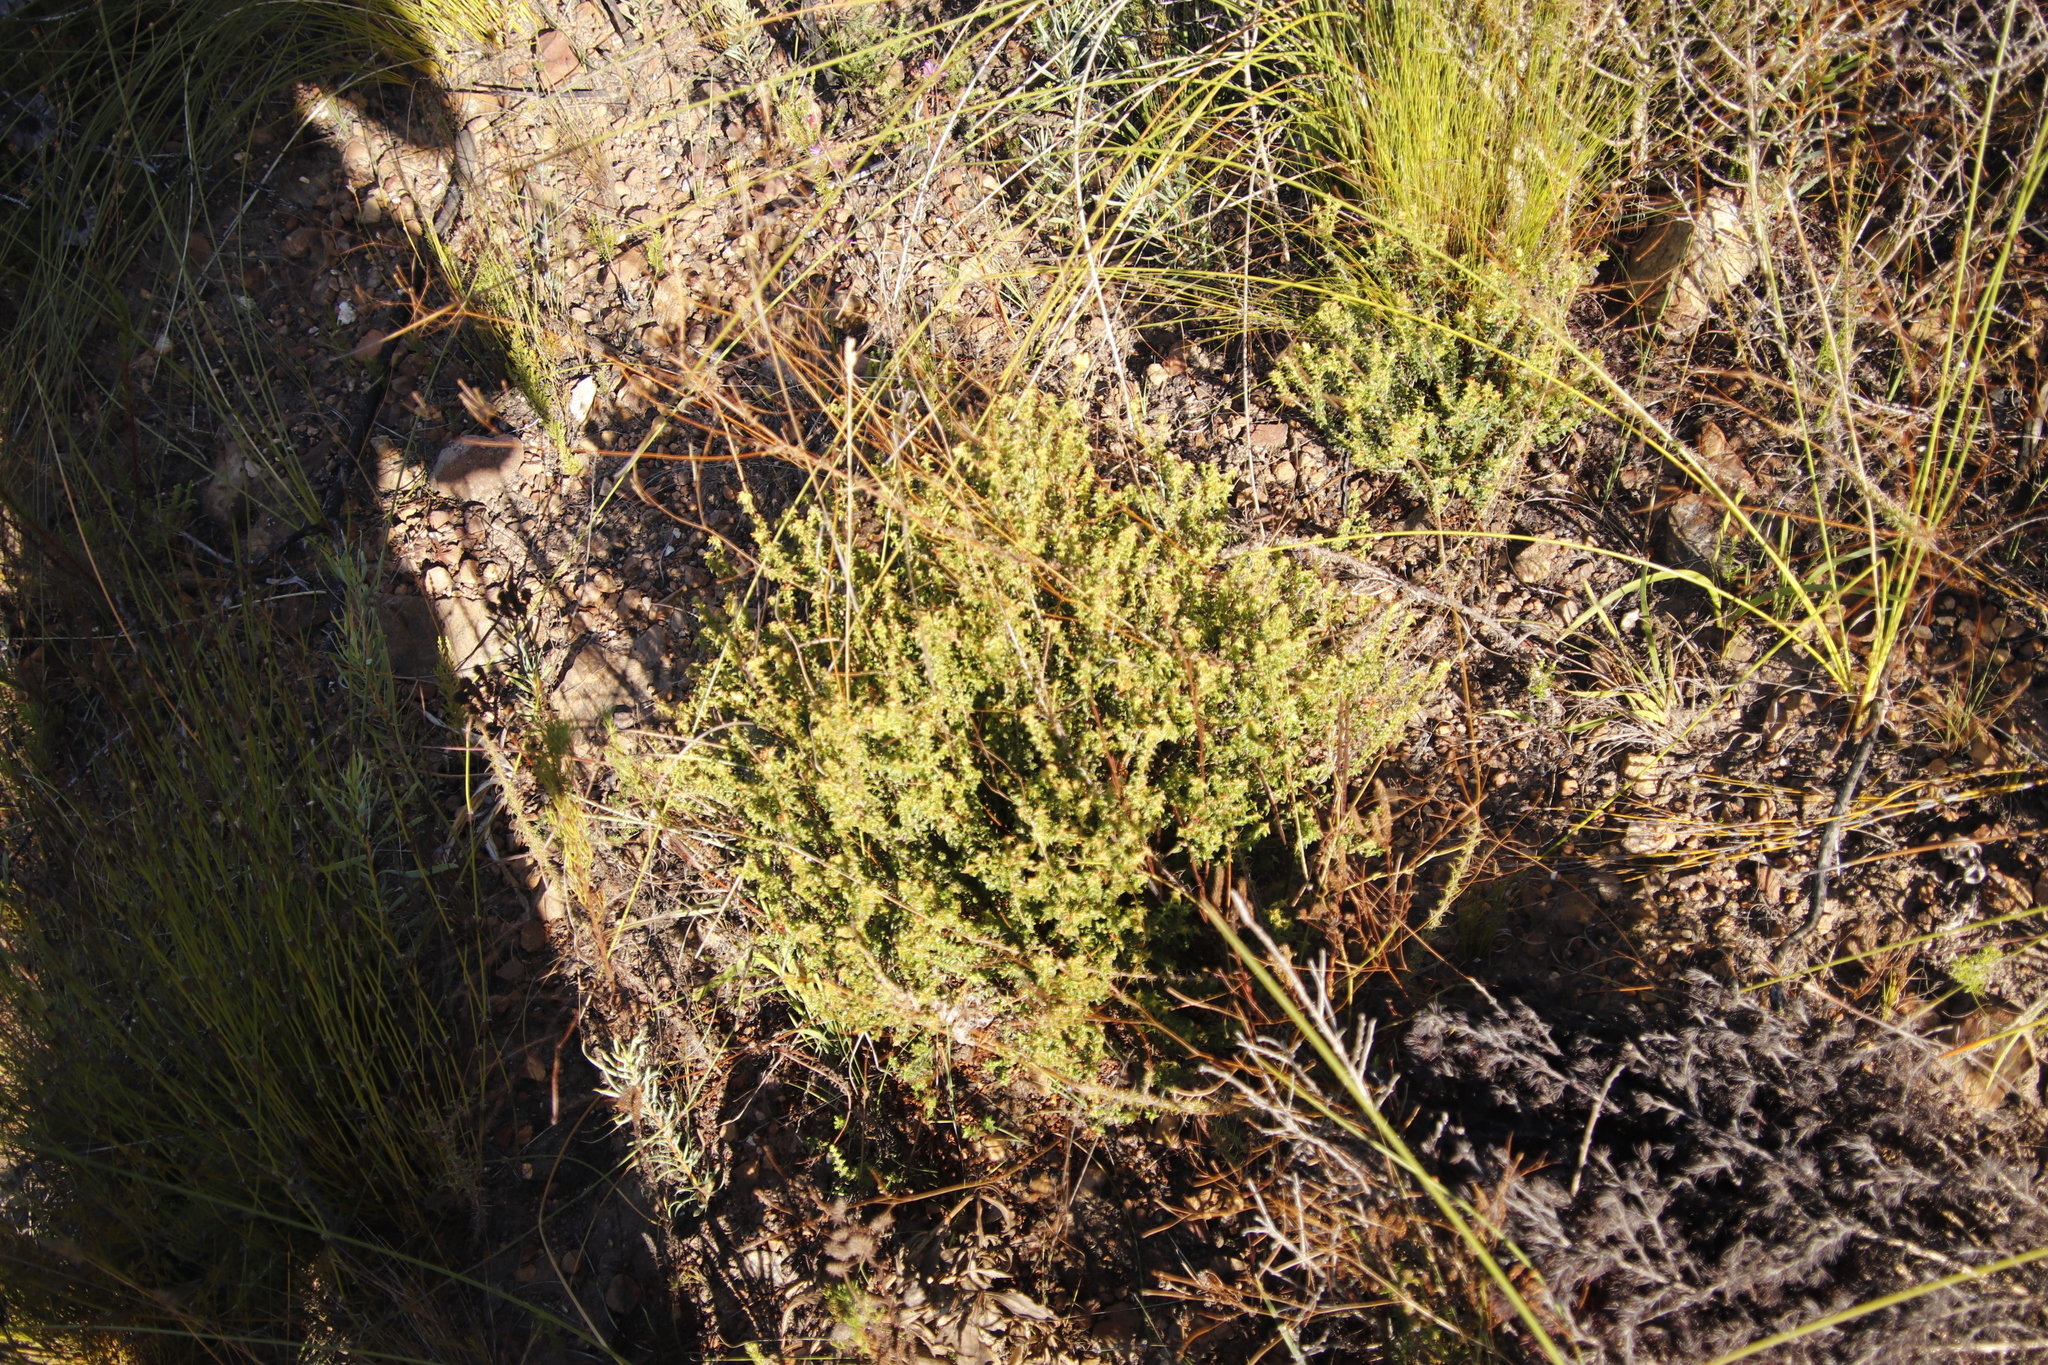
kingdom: Plantae
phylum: Tracheophyta
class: Magnoliopsida
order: Myrtales
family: Penaeaceae
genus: Penaea
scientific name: Penaea mucronata
